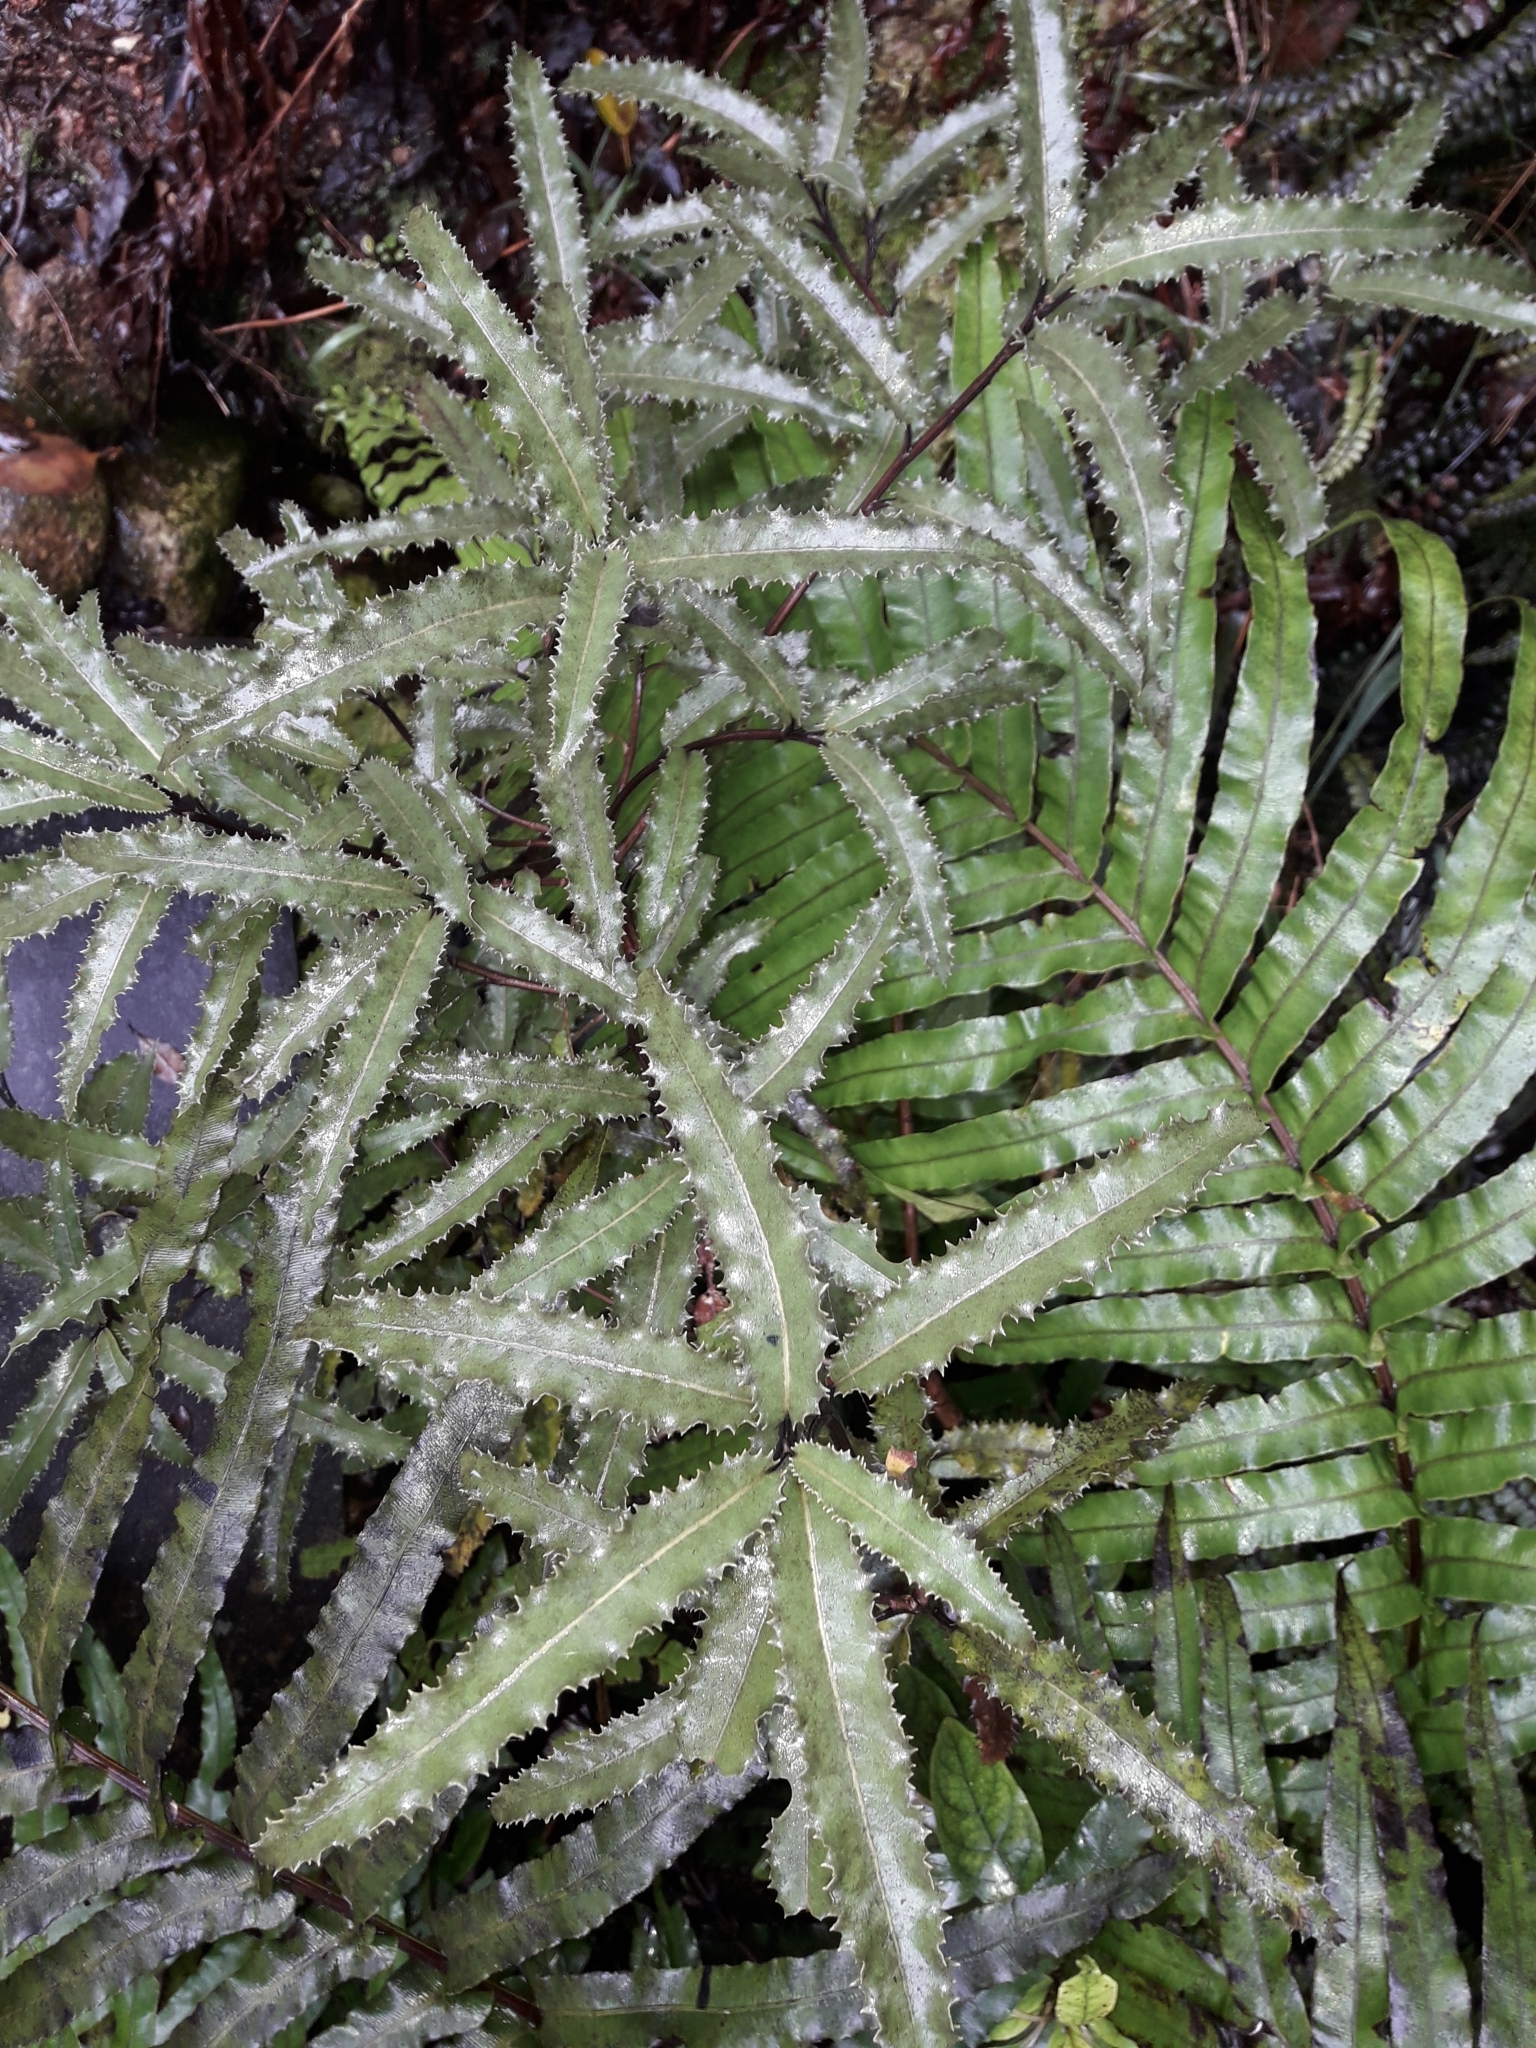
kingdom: Plantae
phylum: Tracheophyta
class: Magnoliopsida
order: Asterales
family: Asteraceae
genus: Olearia
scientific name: Olearia ilicifolia
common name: Maori-holly
